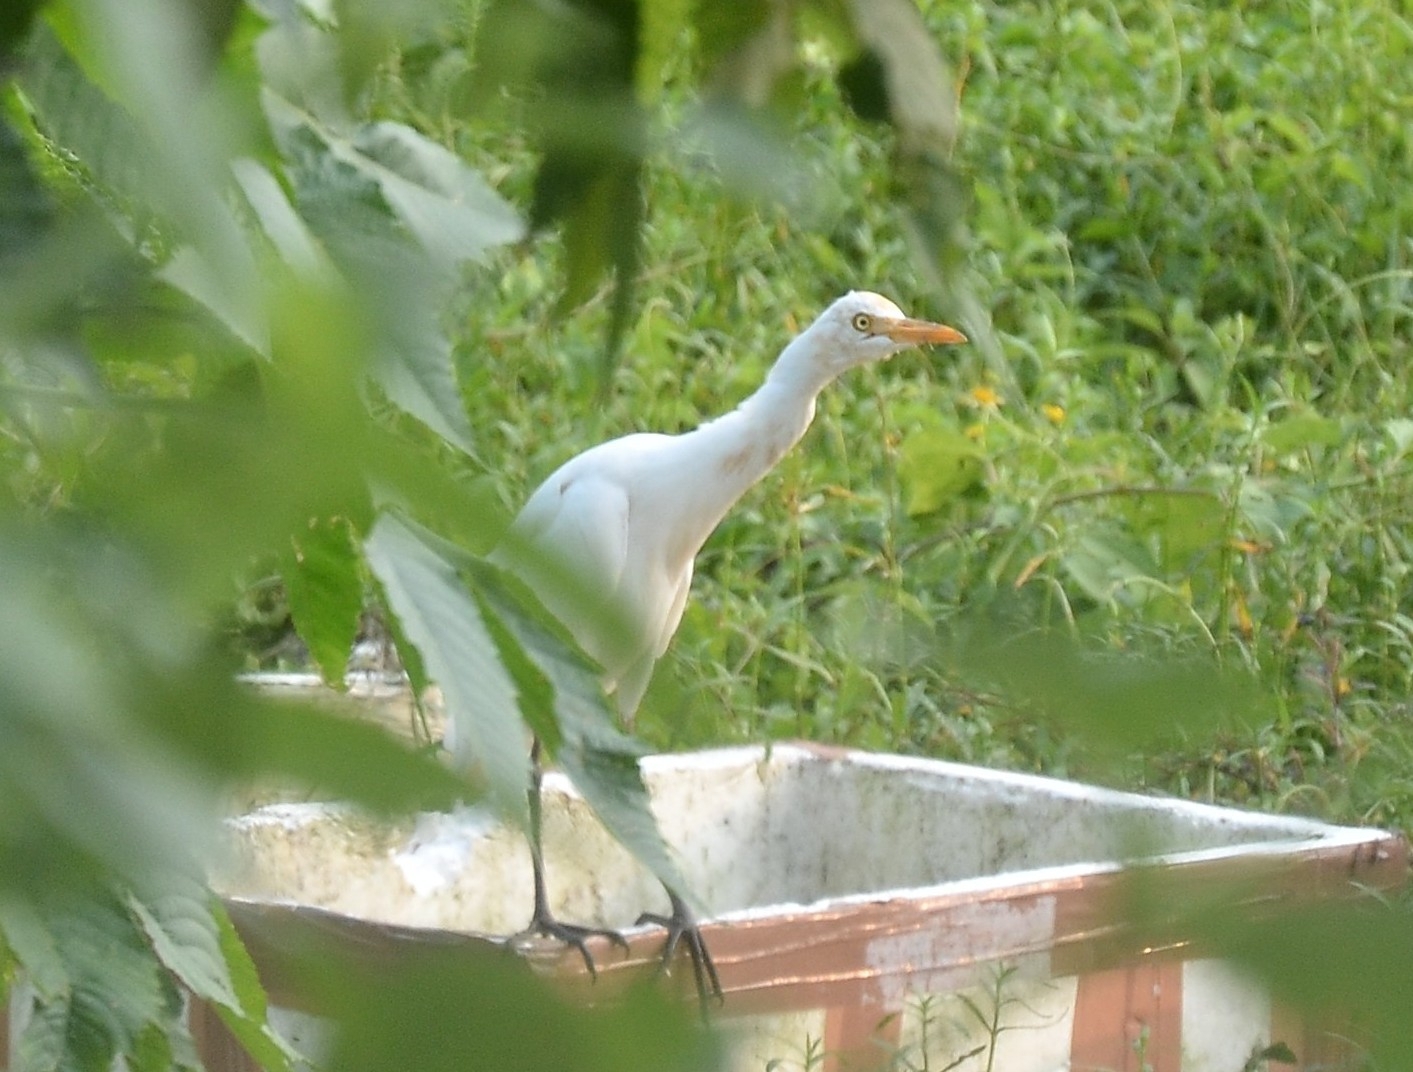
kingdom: Animalia
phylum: Chordata
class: Aves
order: Pelecaniformes
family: Ardeidae
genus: Bubulcus
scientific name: Bubulcus coromandus
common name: Eastern cattle egret
